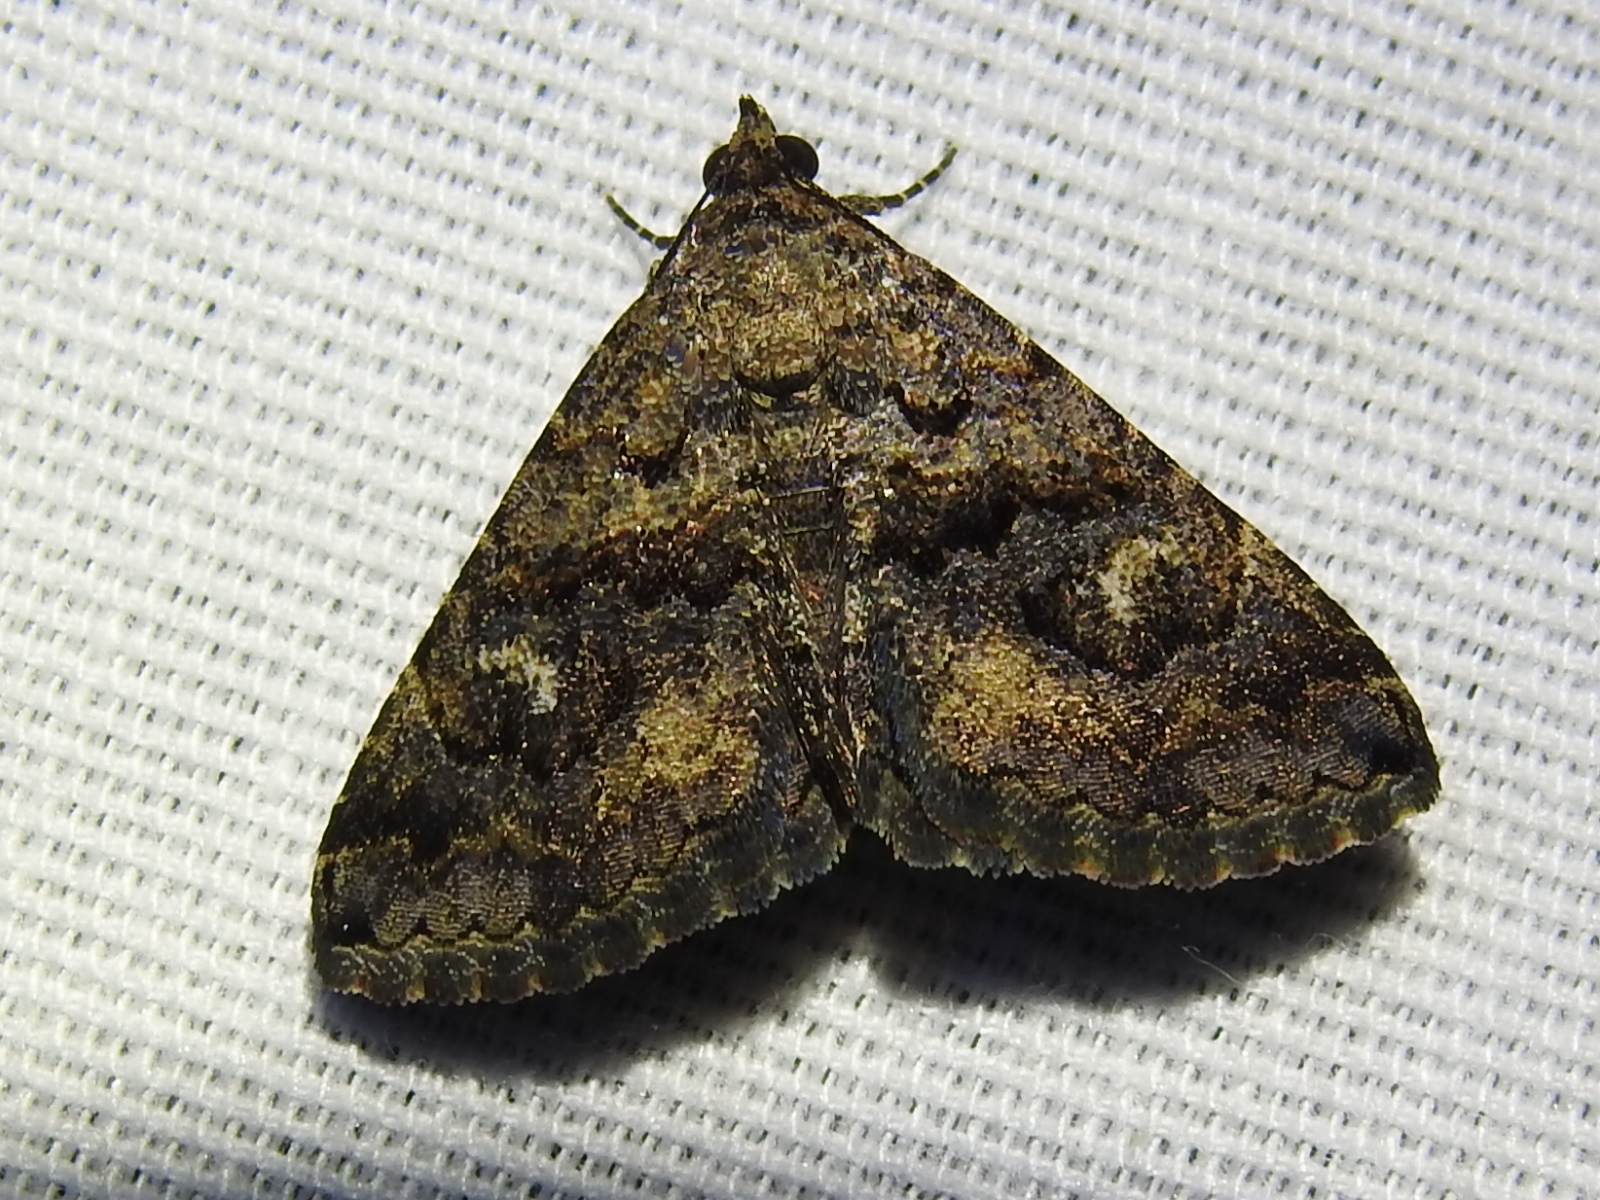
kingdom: Animalia
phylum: Arthropoda
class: Insecta
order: Lepidoptera
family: Erebidae
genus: Toxonprucha
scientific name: Toxonprucha excavata
